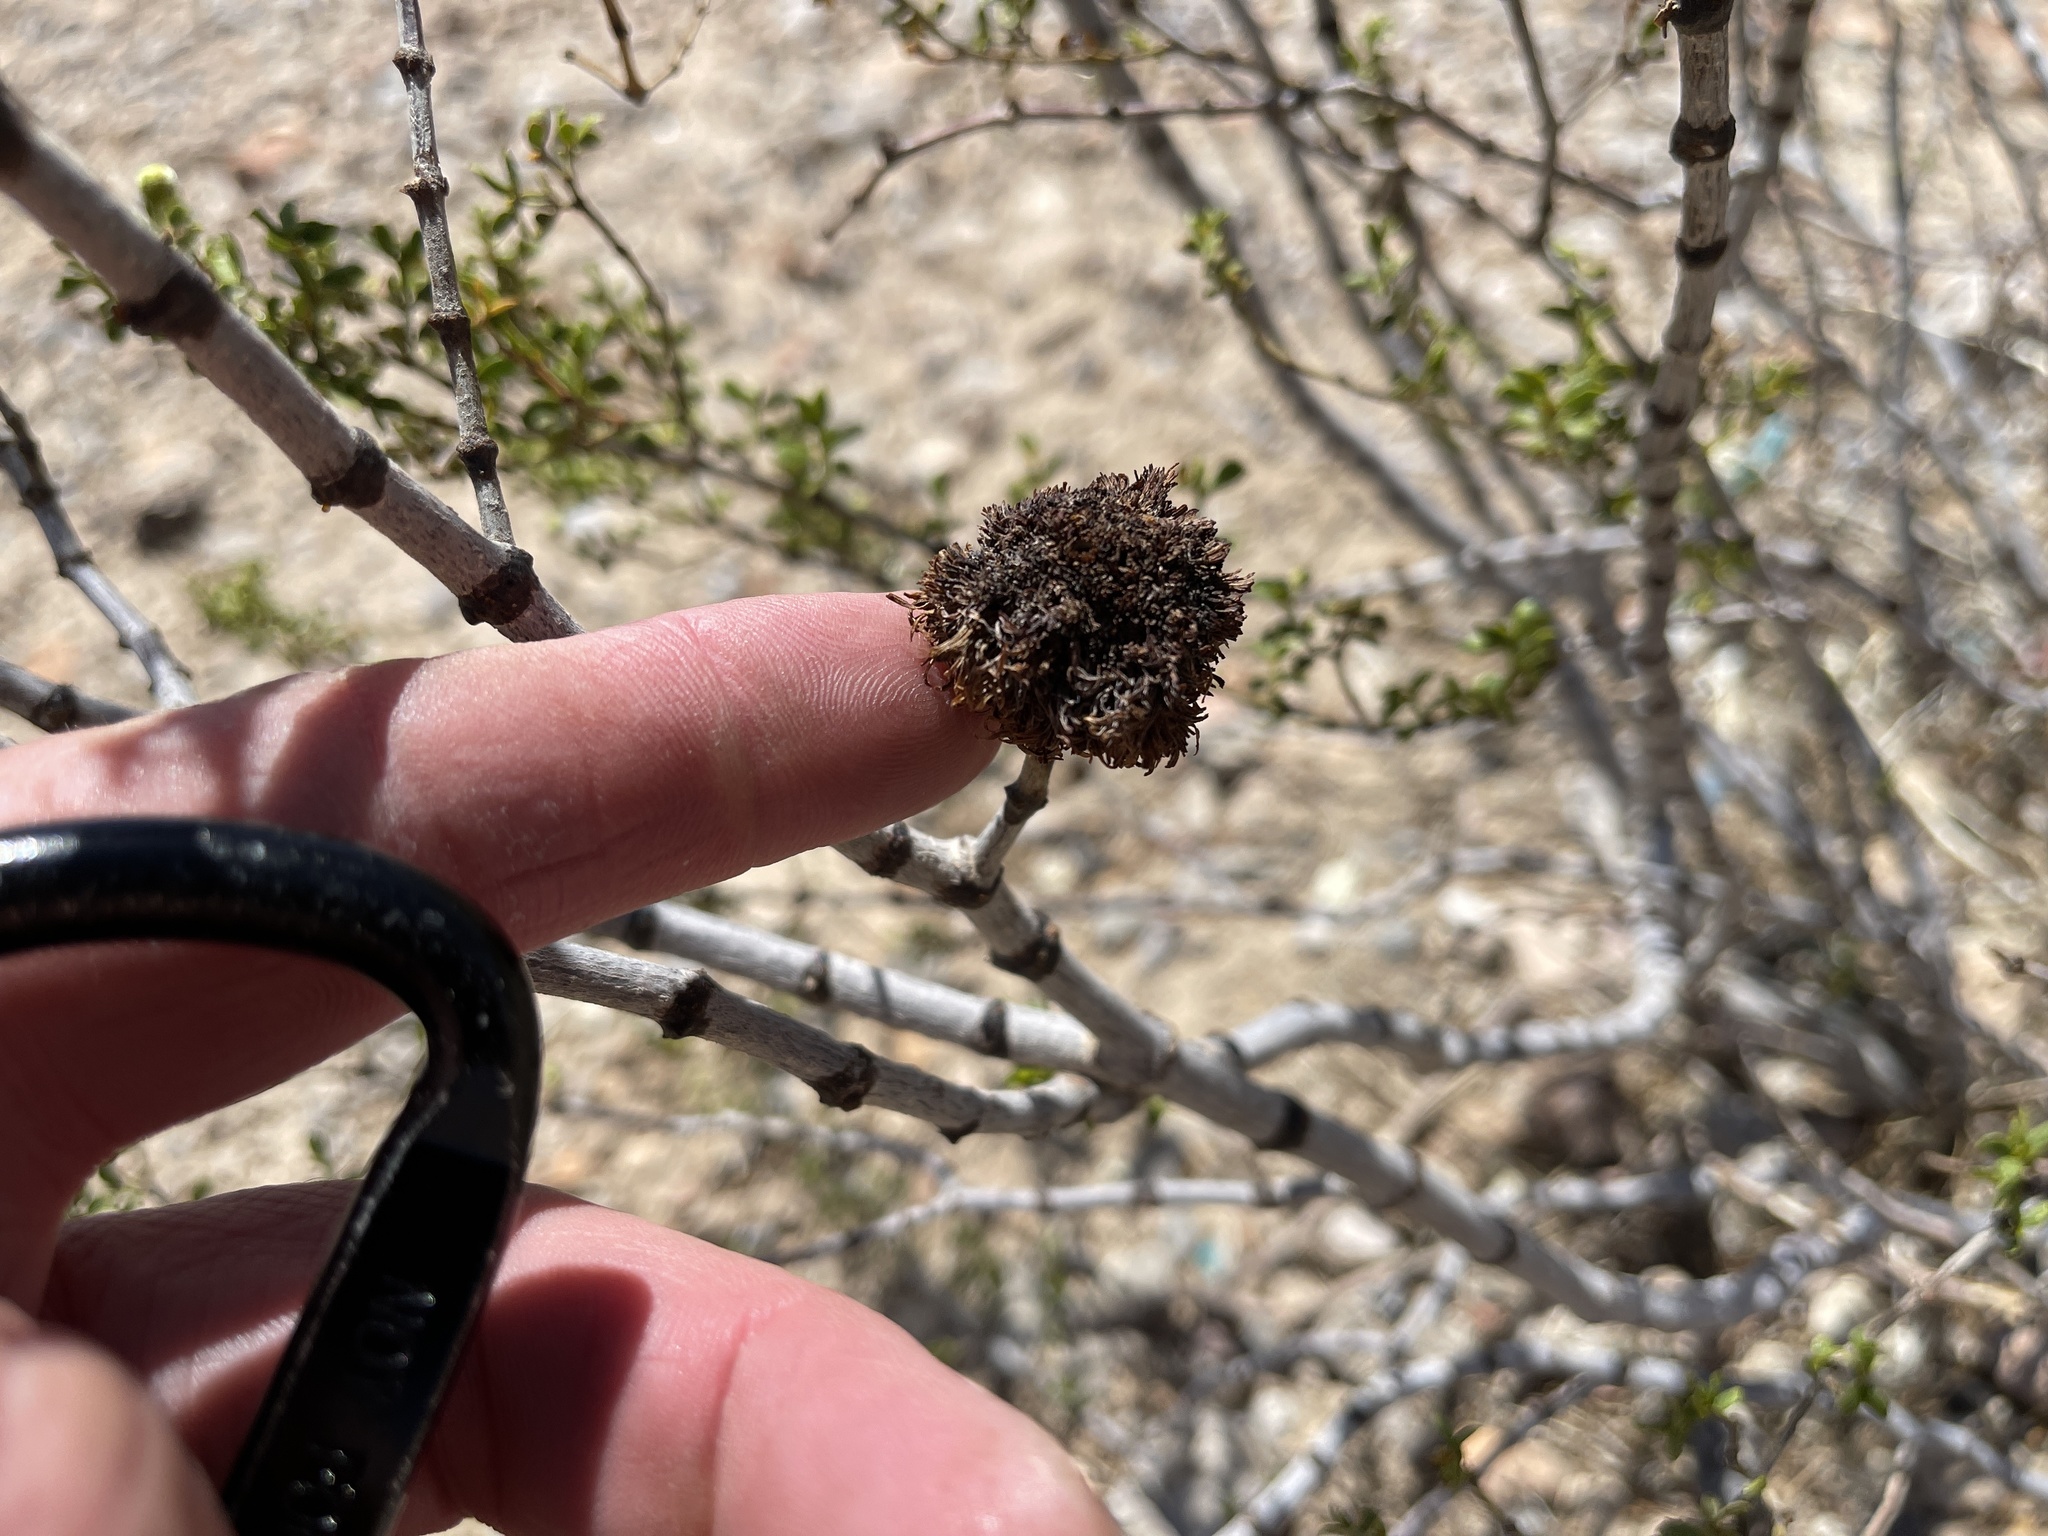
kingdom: Animalia
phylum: Arthropoda
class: Insecta
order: Diptera
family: Cecidomyiidae
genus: Asphondylia
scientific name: Asphondylia auripila
